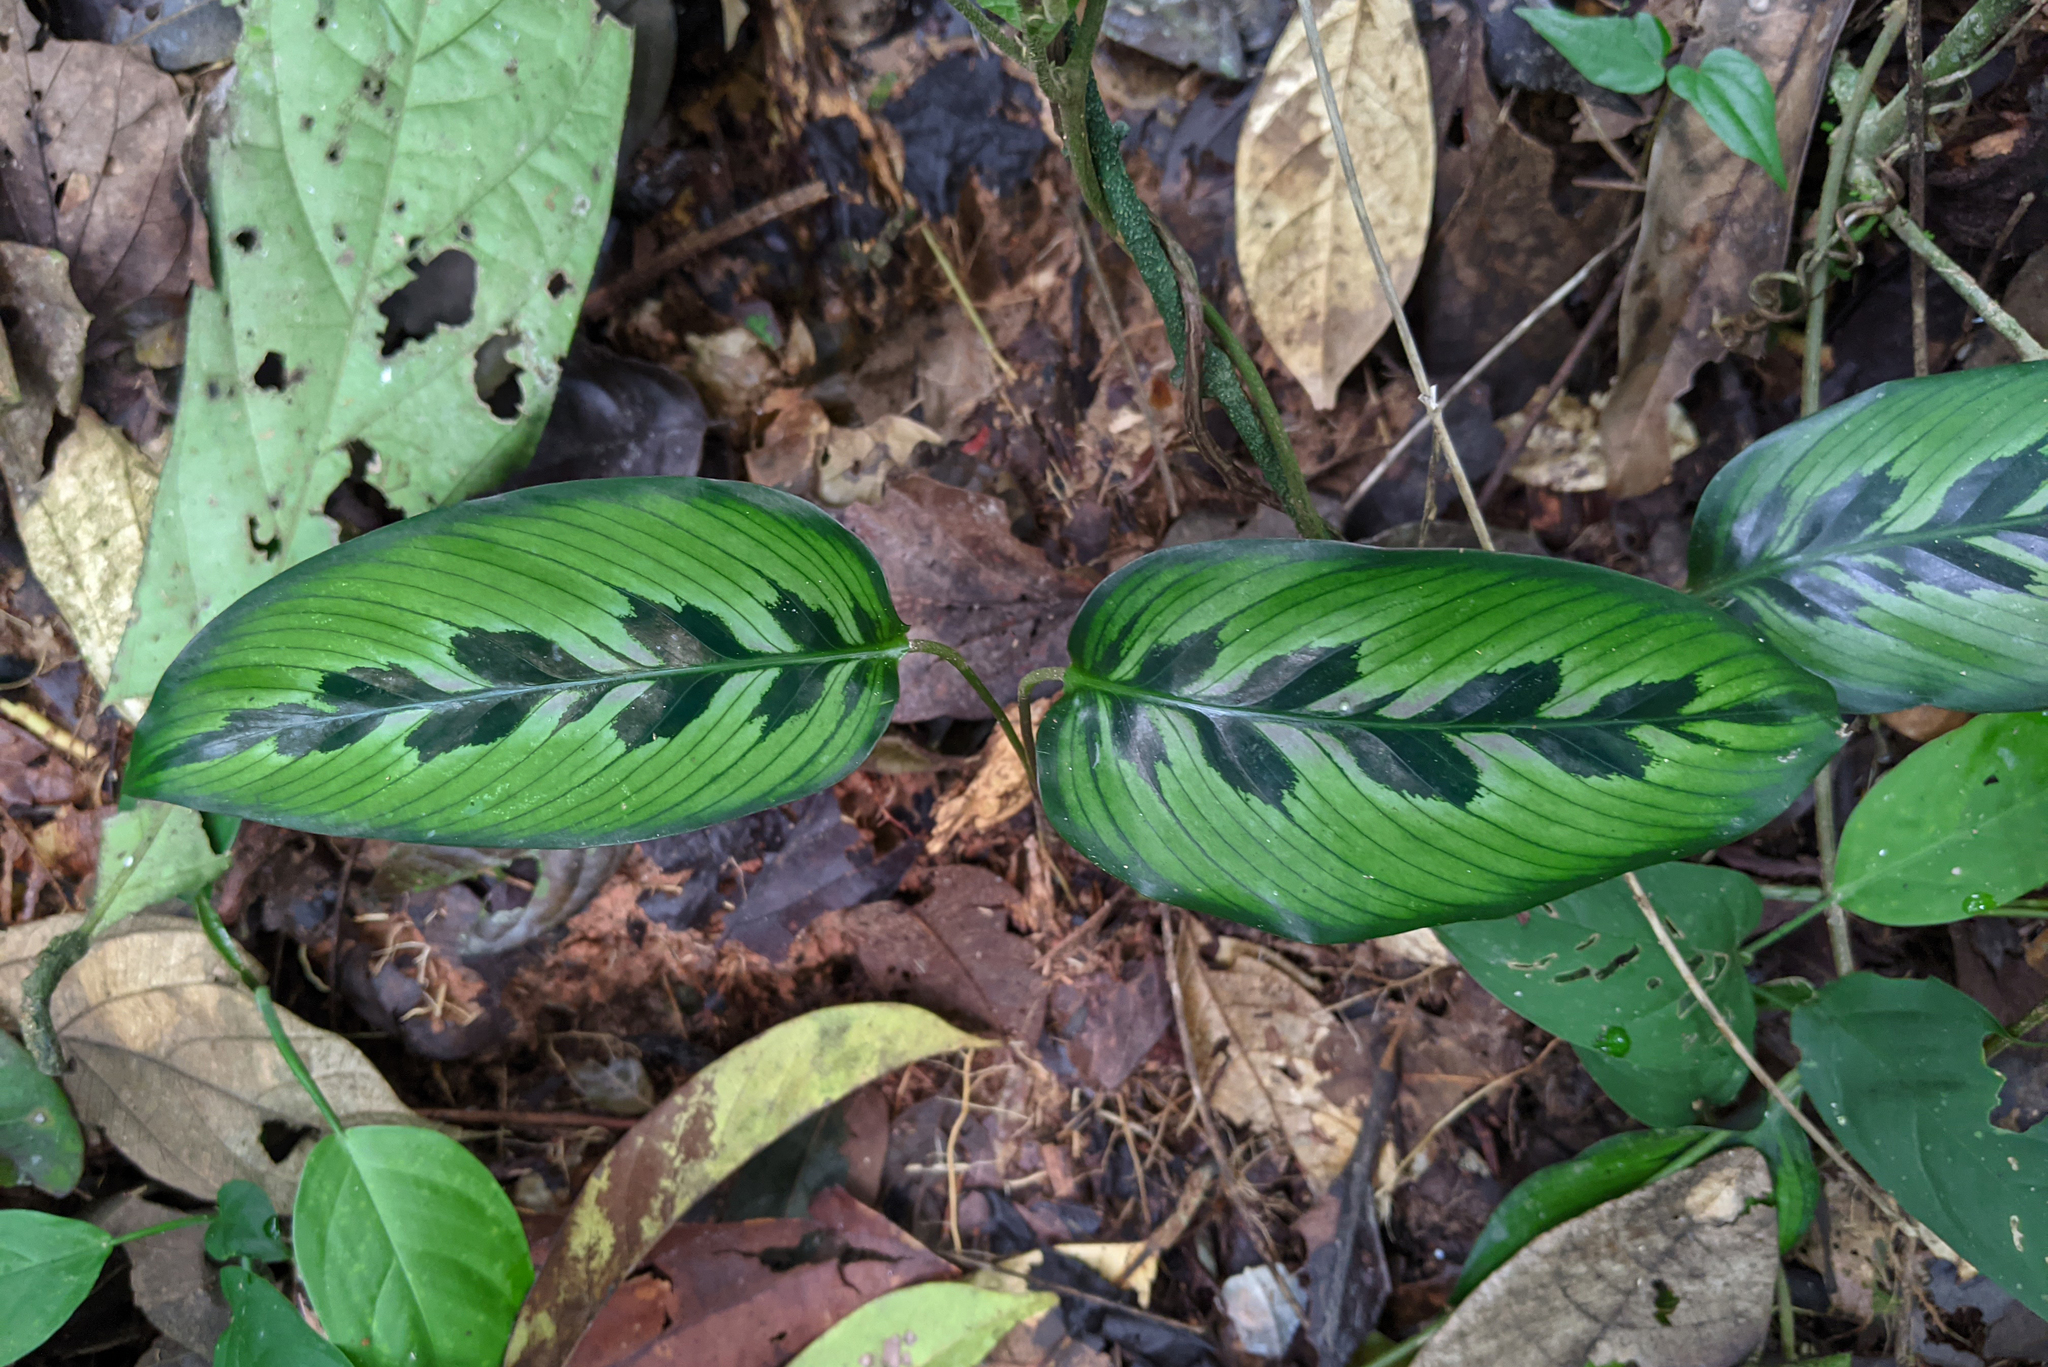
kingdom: Plantae
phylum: Tracheophyta
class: Liliopsida
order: Zingiberales
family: Marantaceae
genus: Goeppertia
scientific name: Goeppertia variegata
